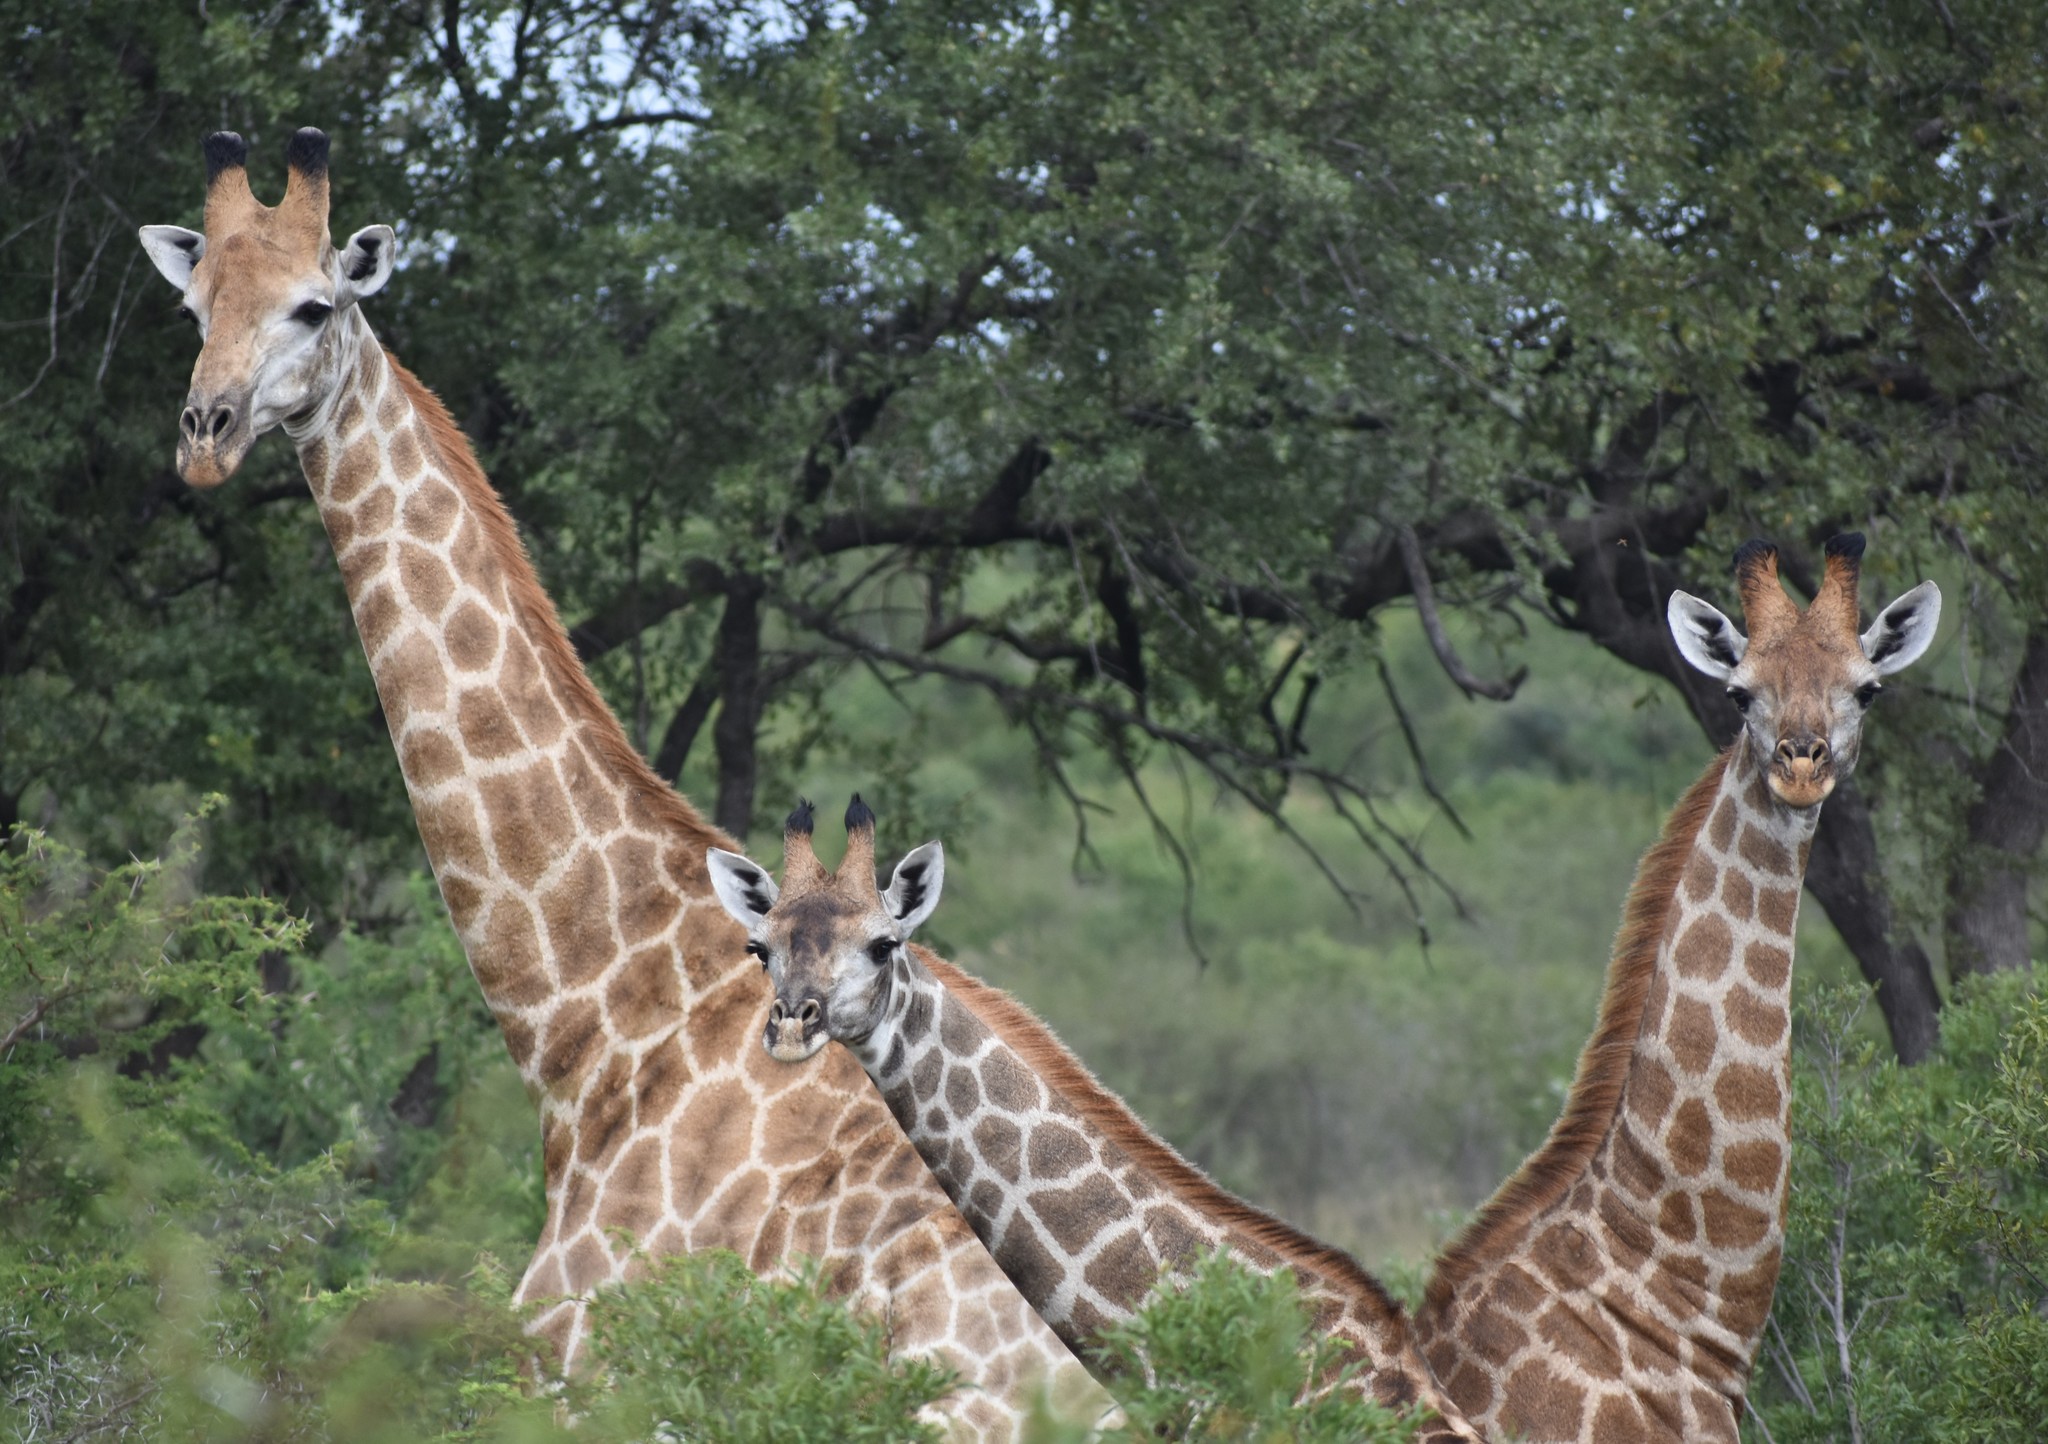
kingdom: Animalia
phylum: Chordata
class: Mammalia
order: Artiodactyla
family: Giraffidae
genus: Giraffa
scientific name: Giraffa giraffa
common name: Southern giraffe
